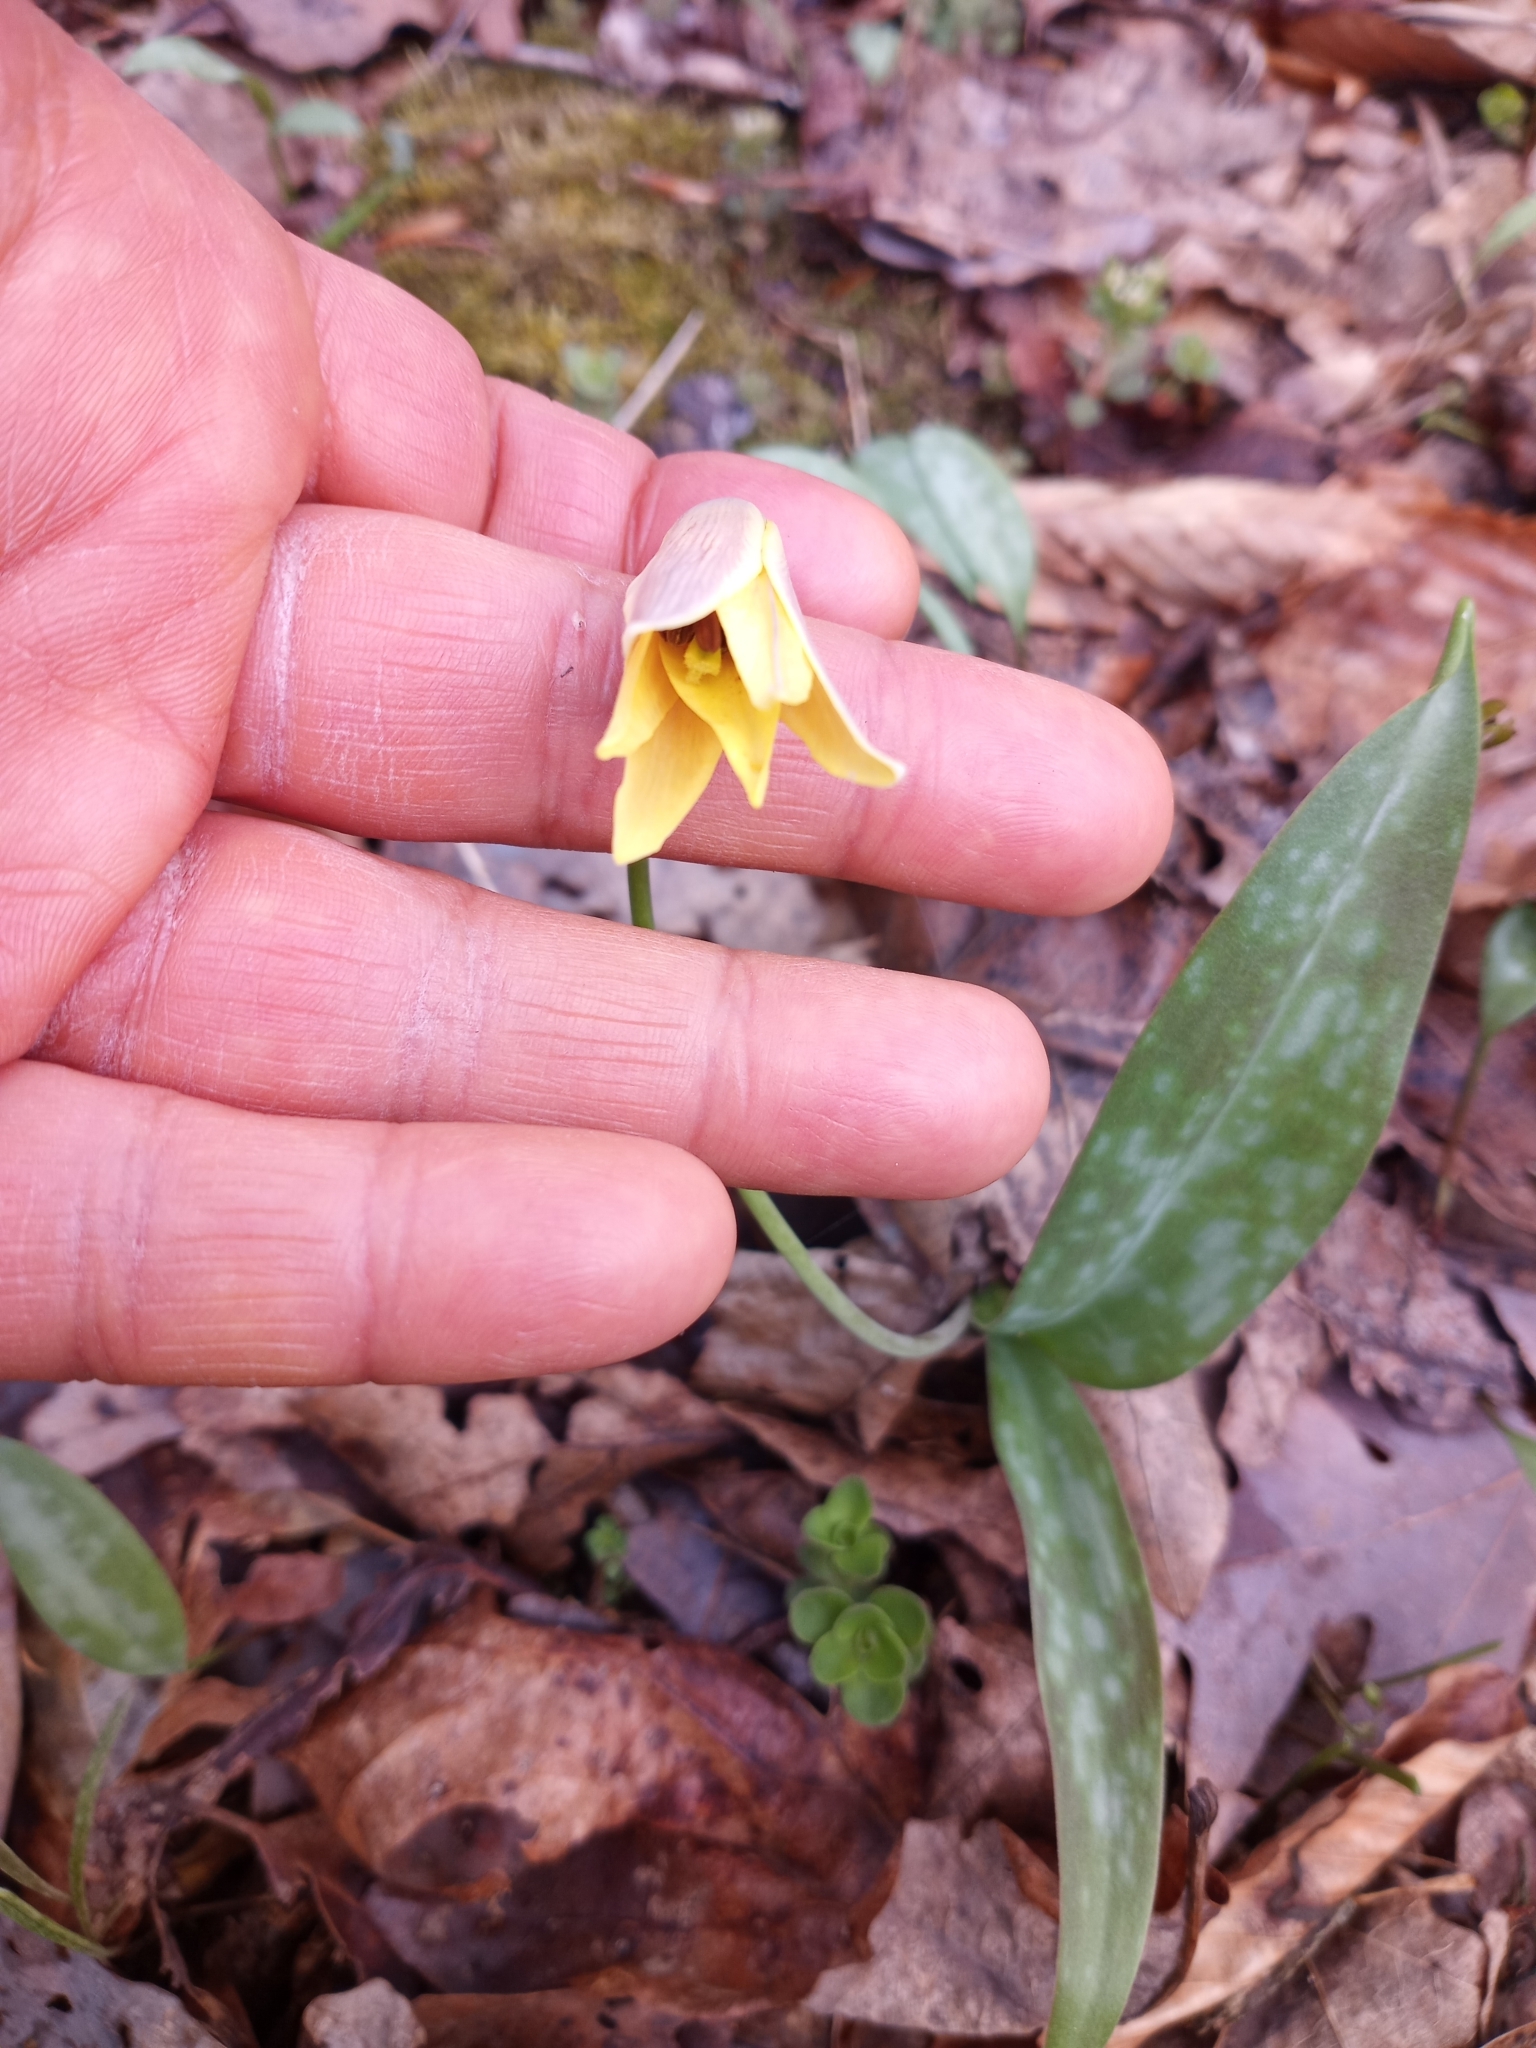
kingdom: Plantae
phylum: Tracheophyta
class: Liliopsida
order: Liliales
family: Liliaceae
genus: Erythronium
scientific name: Erythronium americanum
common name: Yellow adder's-tongue
